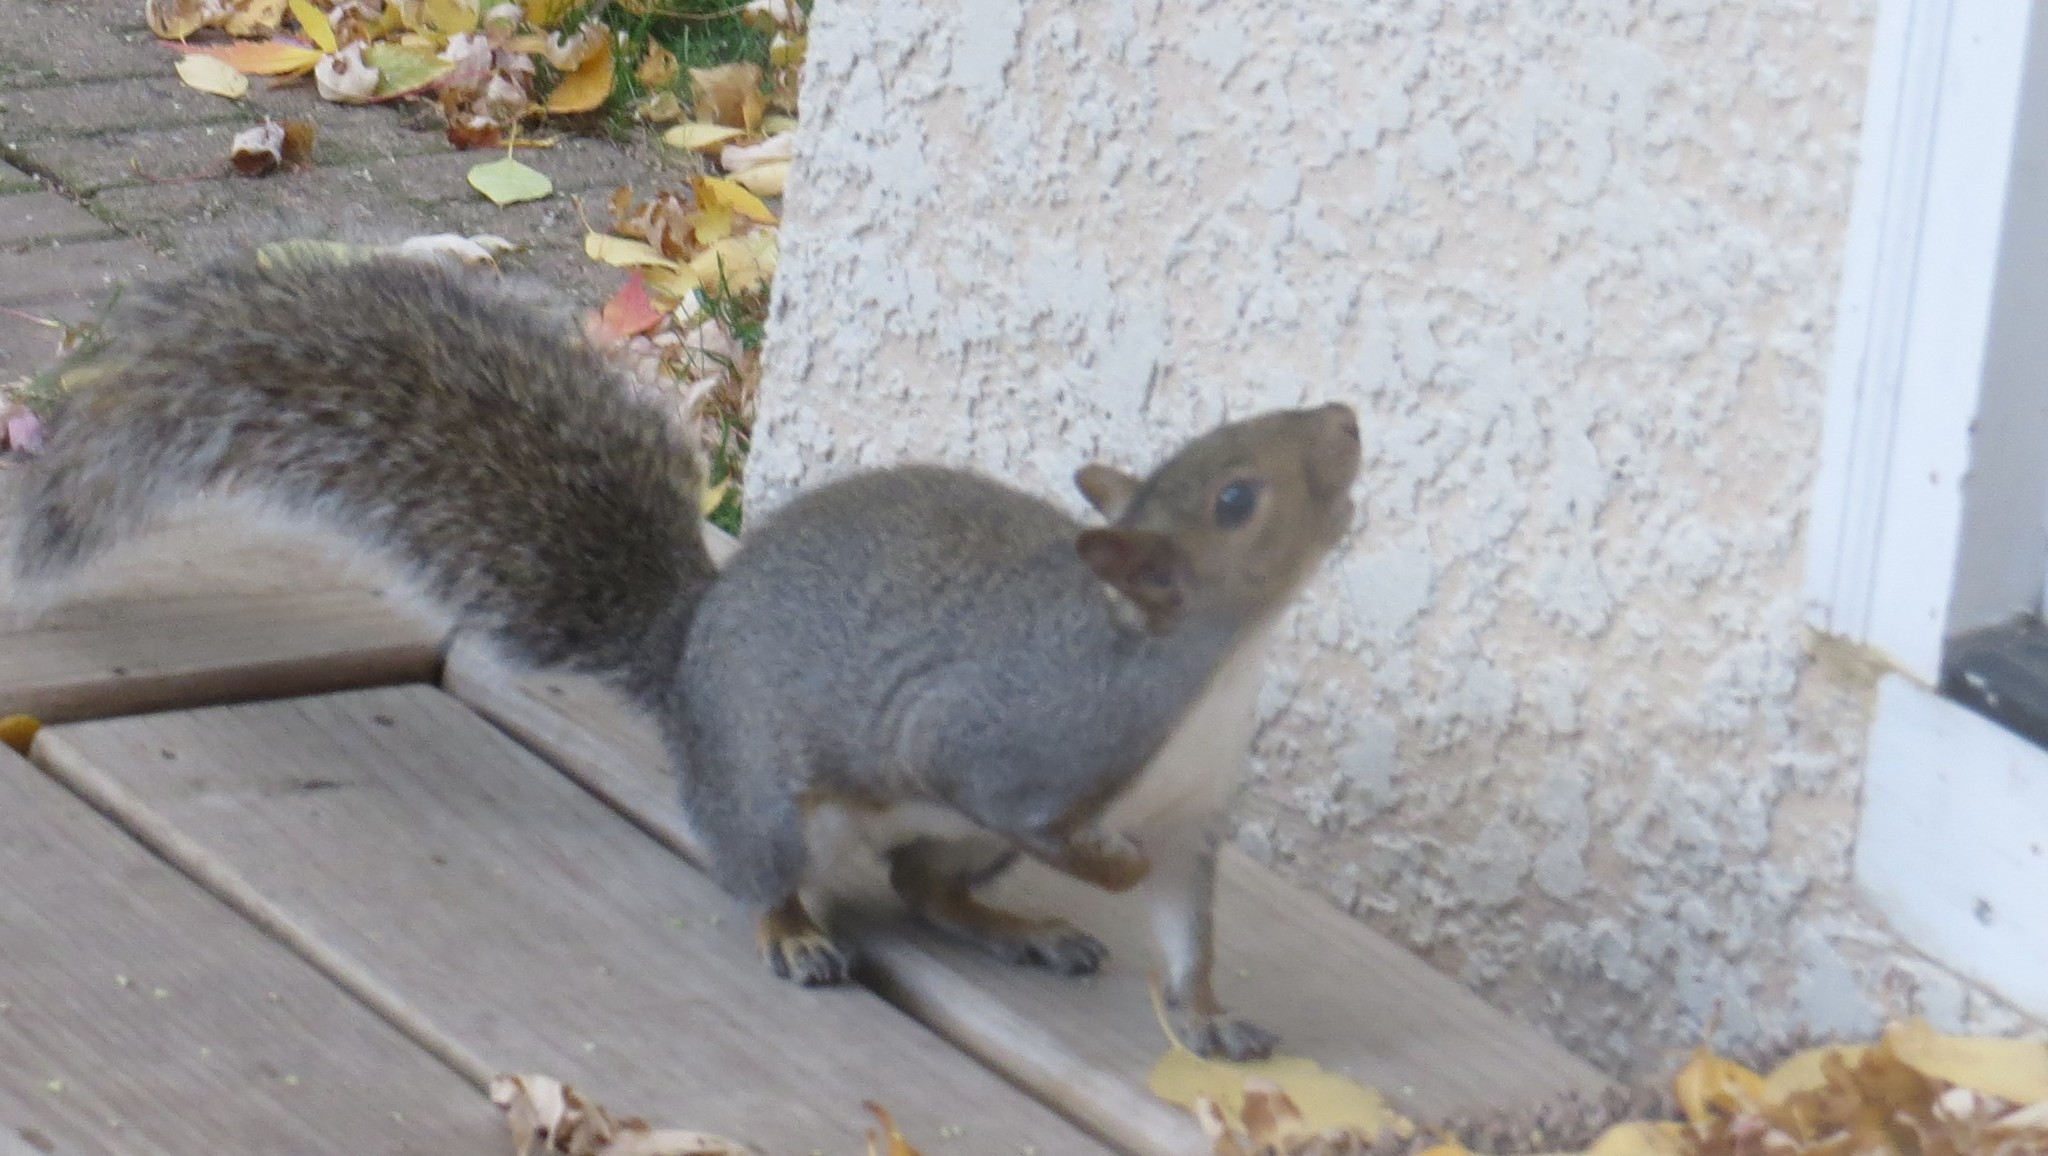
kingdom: Animalia
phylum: Chordata
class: Mammalia
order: Rodentia
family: Sciuridae
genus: Sciurus
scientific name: Sciurus carolinensis
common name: Eastern gray squirrel
